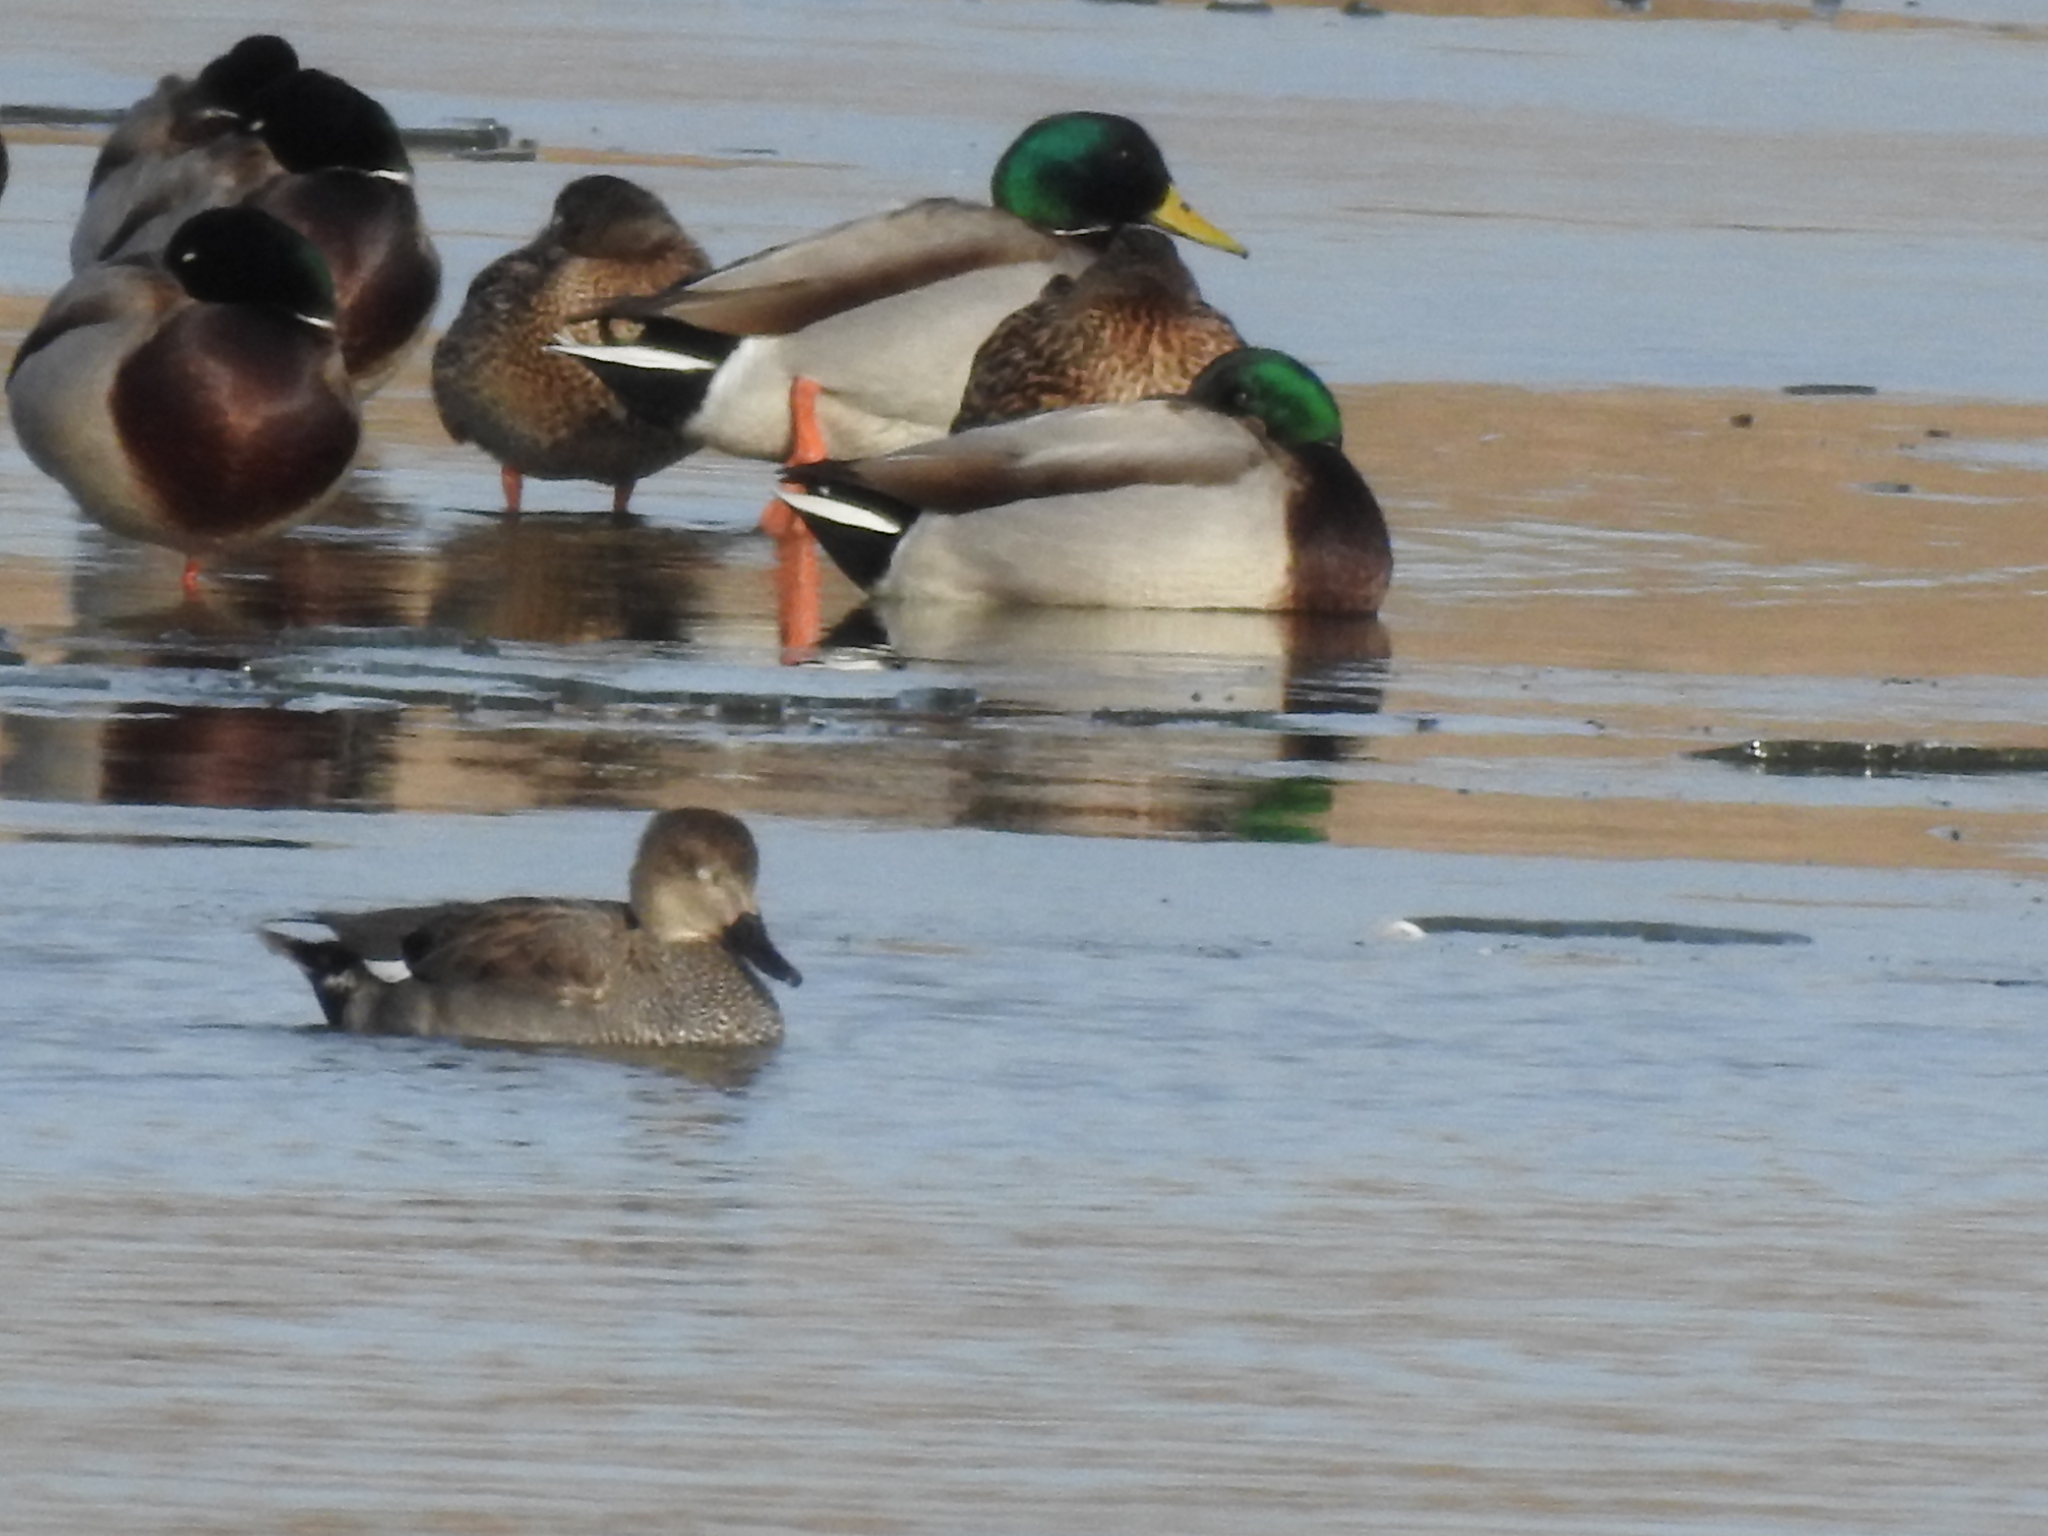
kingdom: Animalia
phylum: Chordata
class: Aves
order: Anseriformes
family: Anatidae
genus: Mareca
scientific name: Mareca strepera
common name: Gadwall
